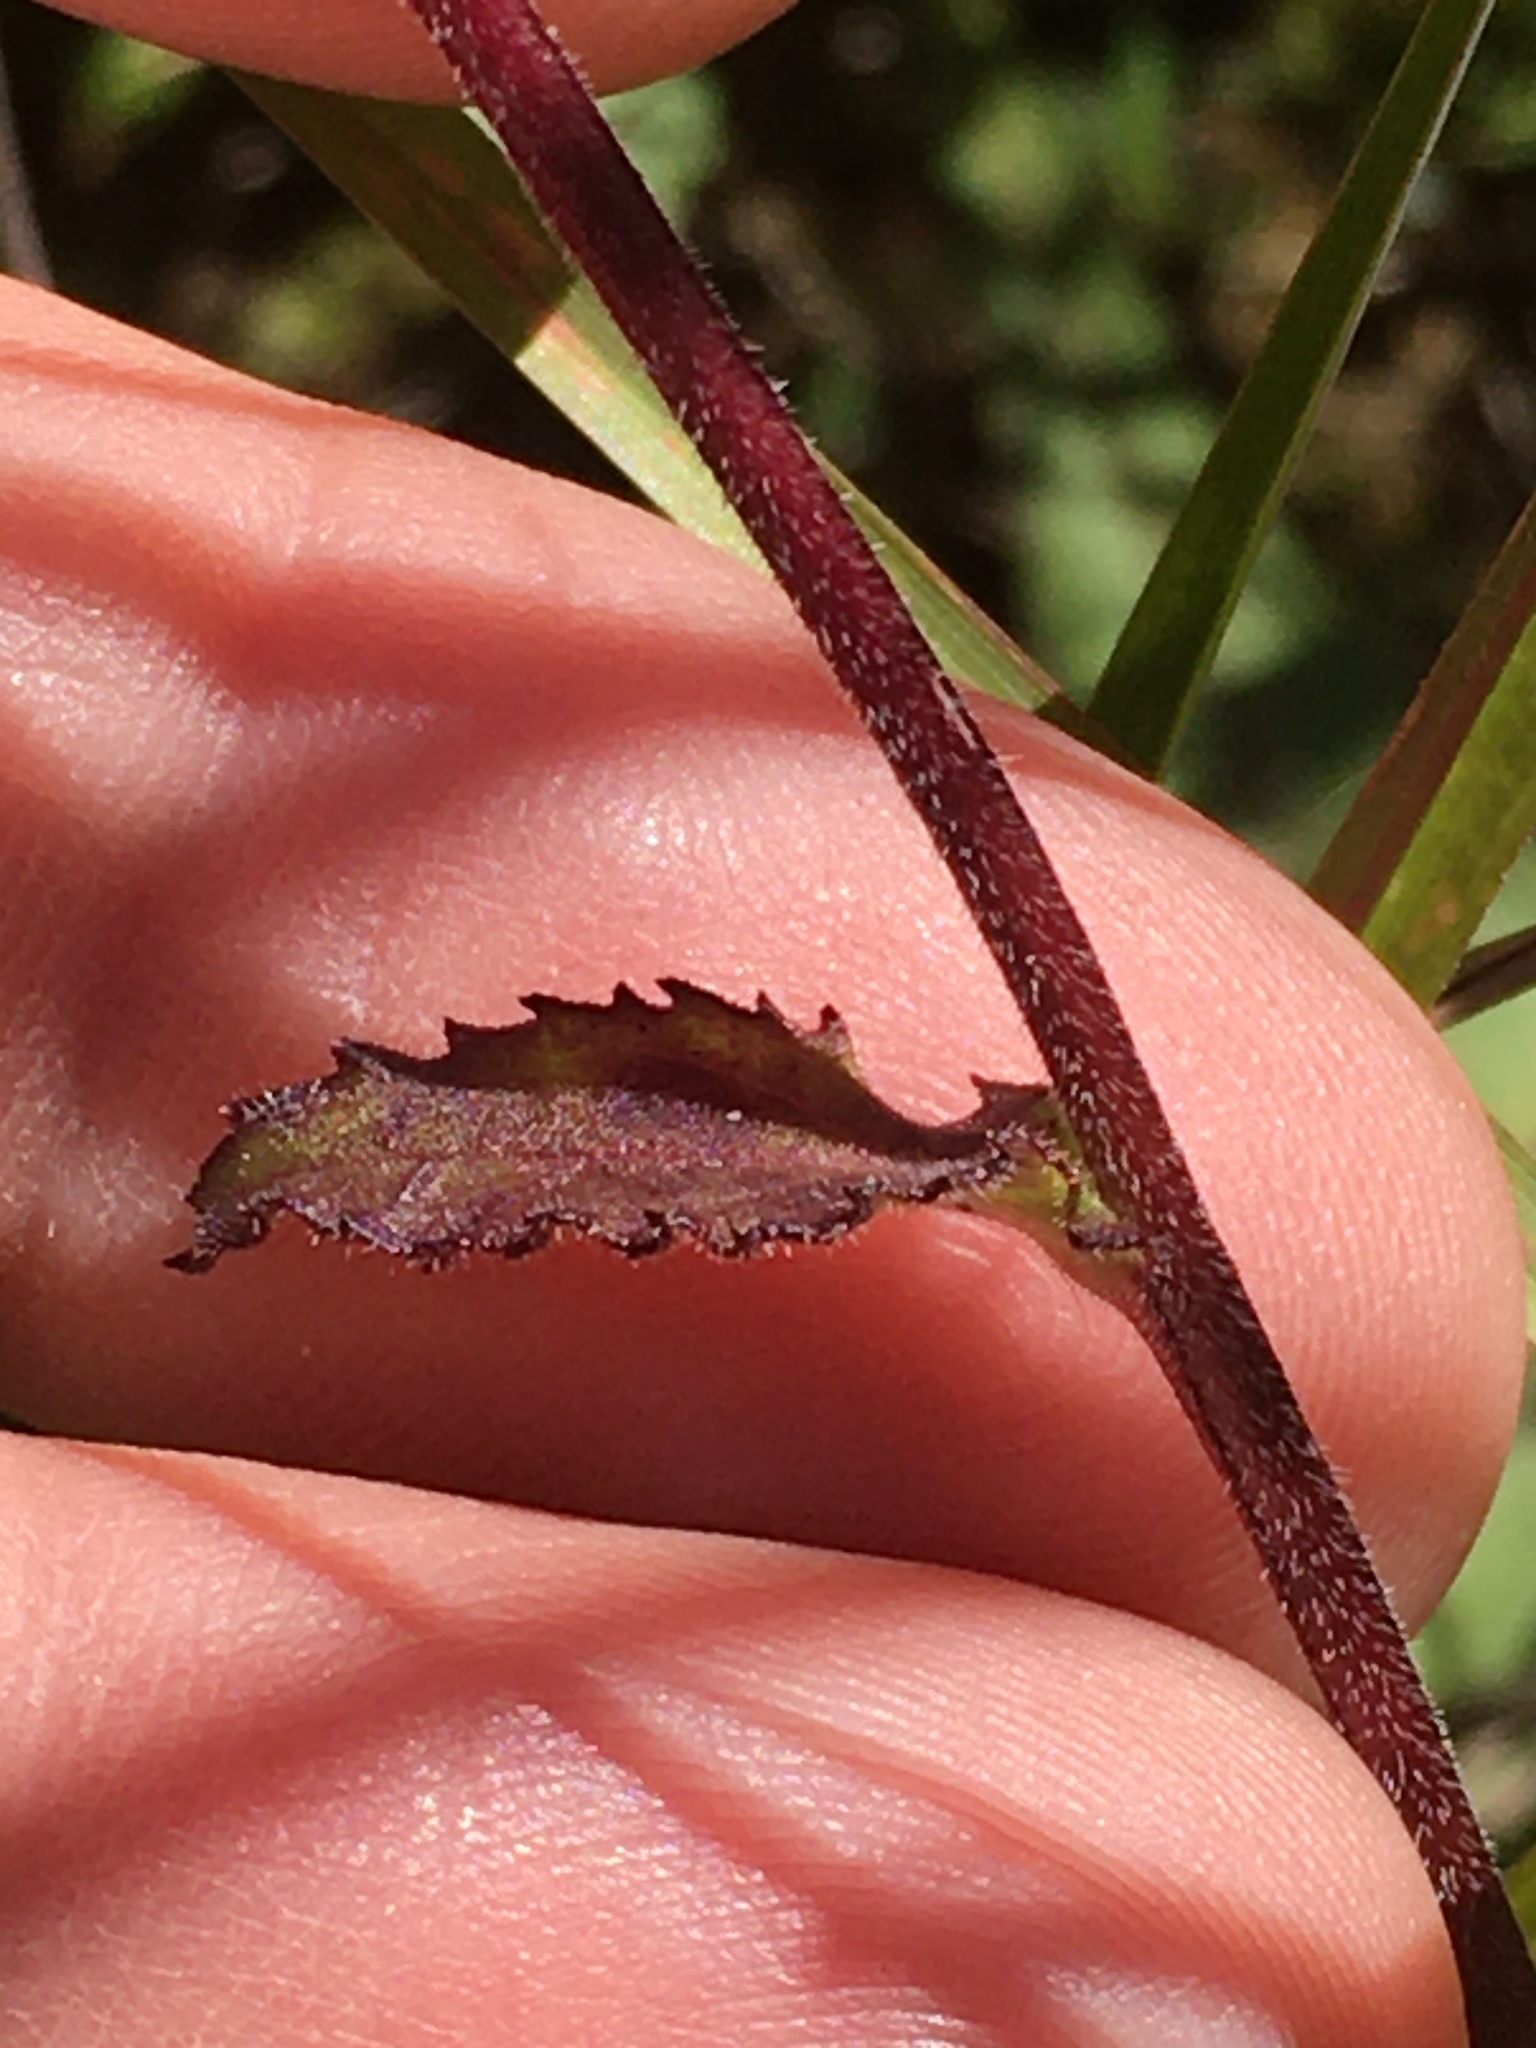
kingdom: Plantae
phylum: Tracheophyta
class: Magnoliopsida
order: Asterales
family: Campanulaceae
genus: Lobelia
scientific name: Lobelia puberula
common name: Purple dewdrop
